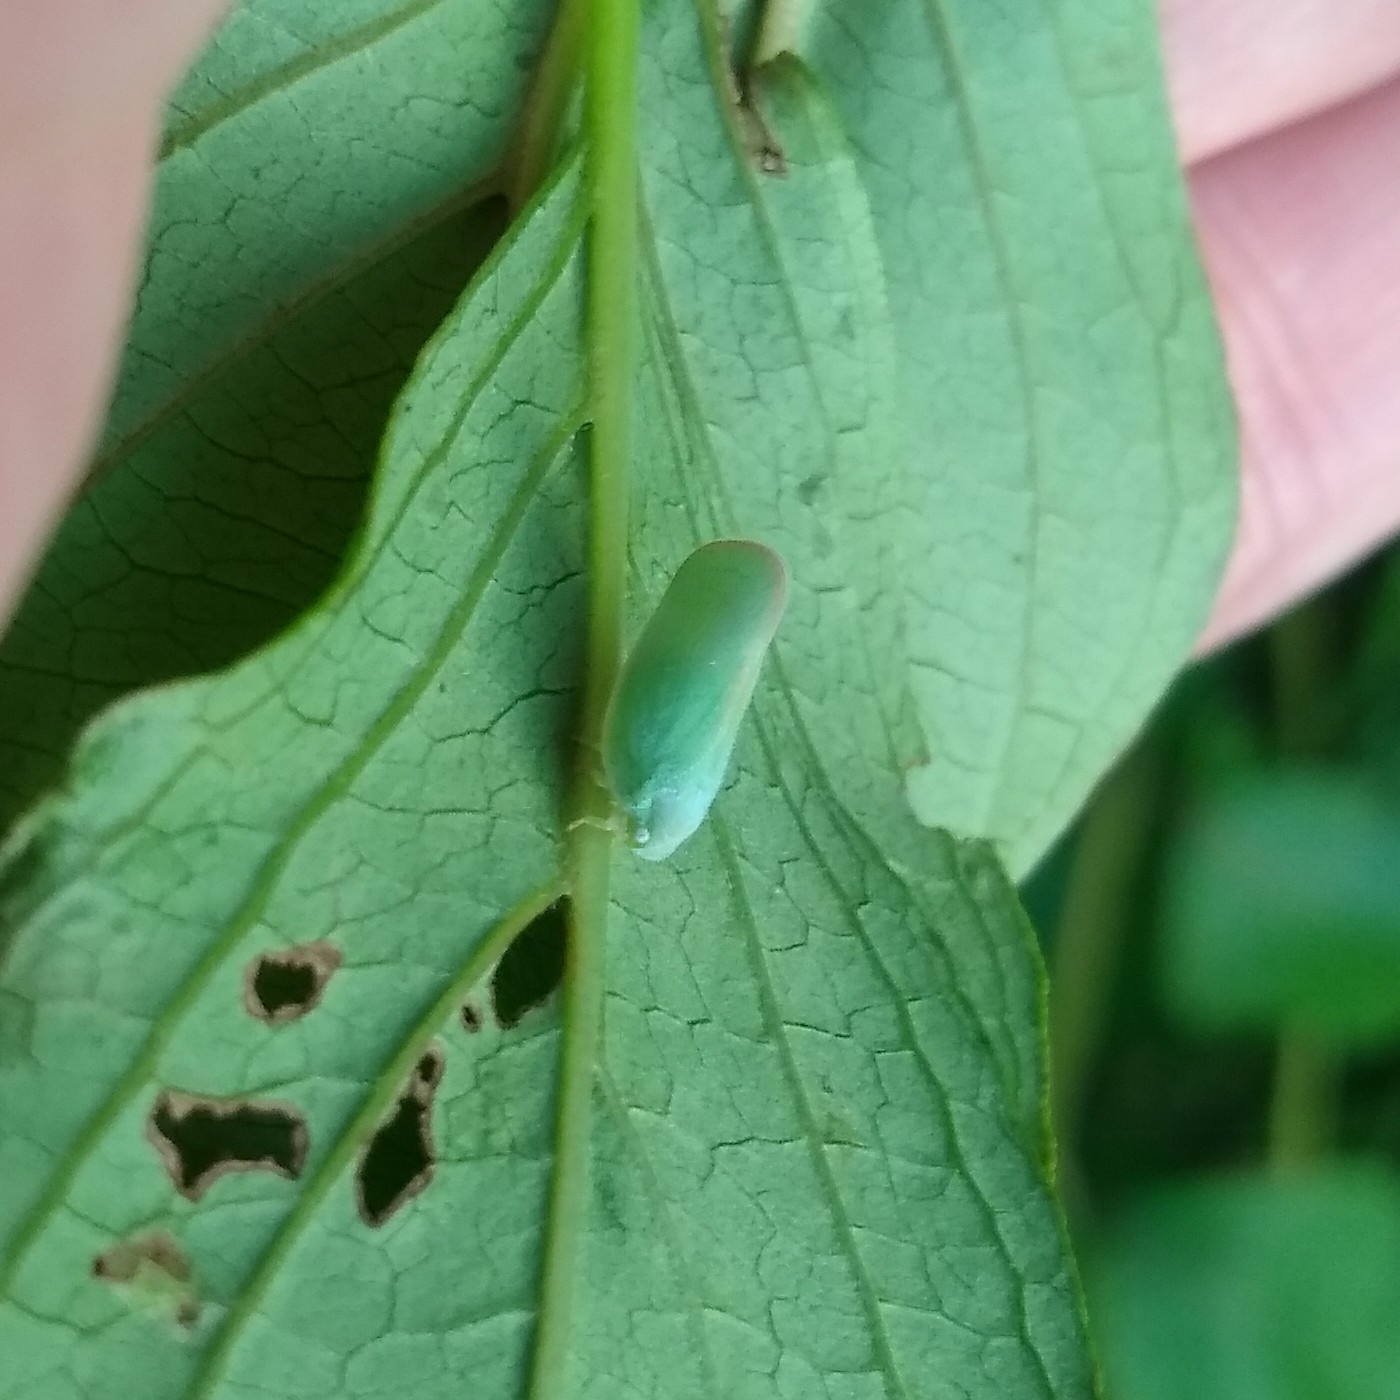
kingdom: Animalia
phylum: Arthropoda
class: Insecta
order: Hemiptera
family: Flatidae
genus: Ormenoides
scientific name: Ormenoides venusta
